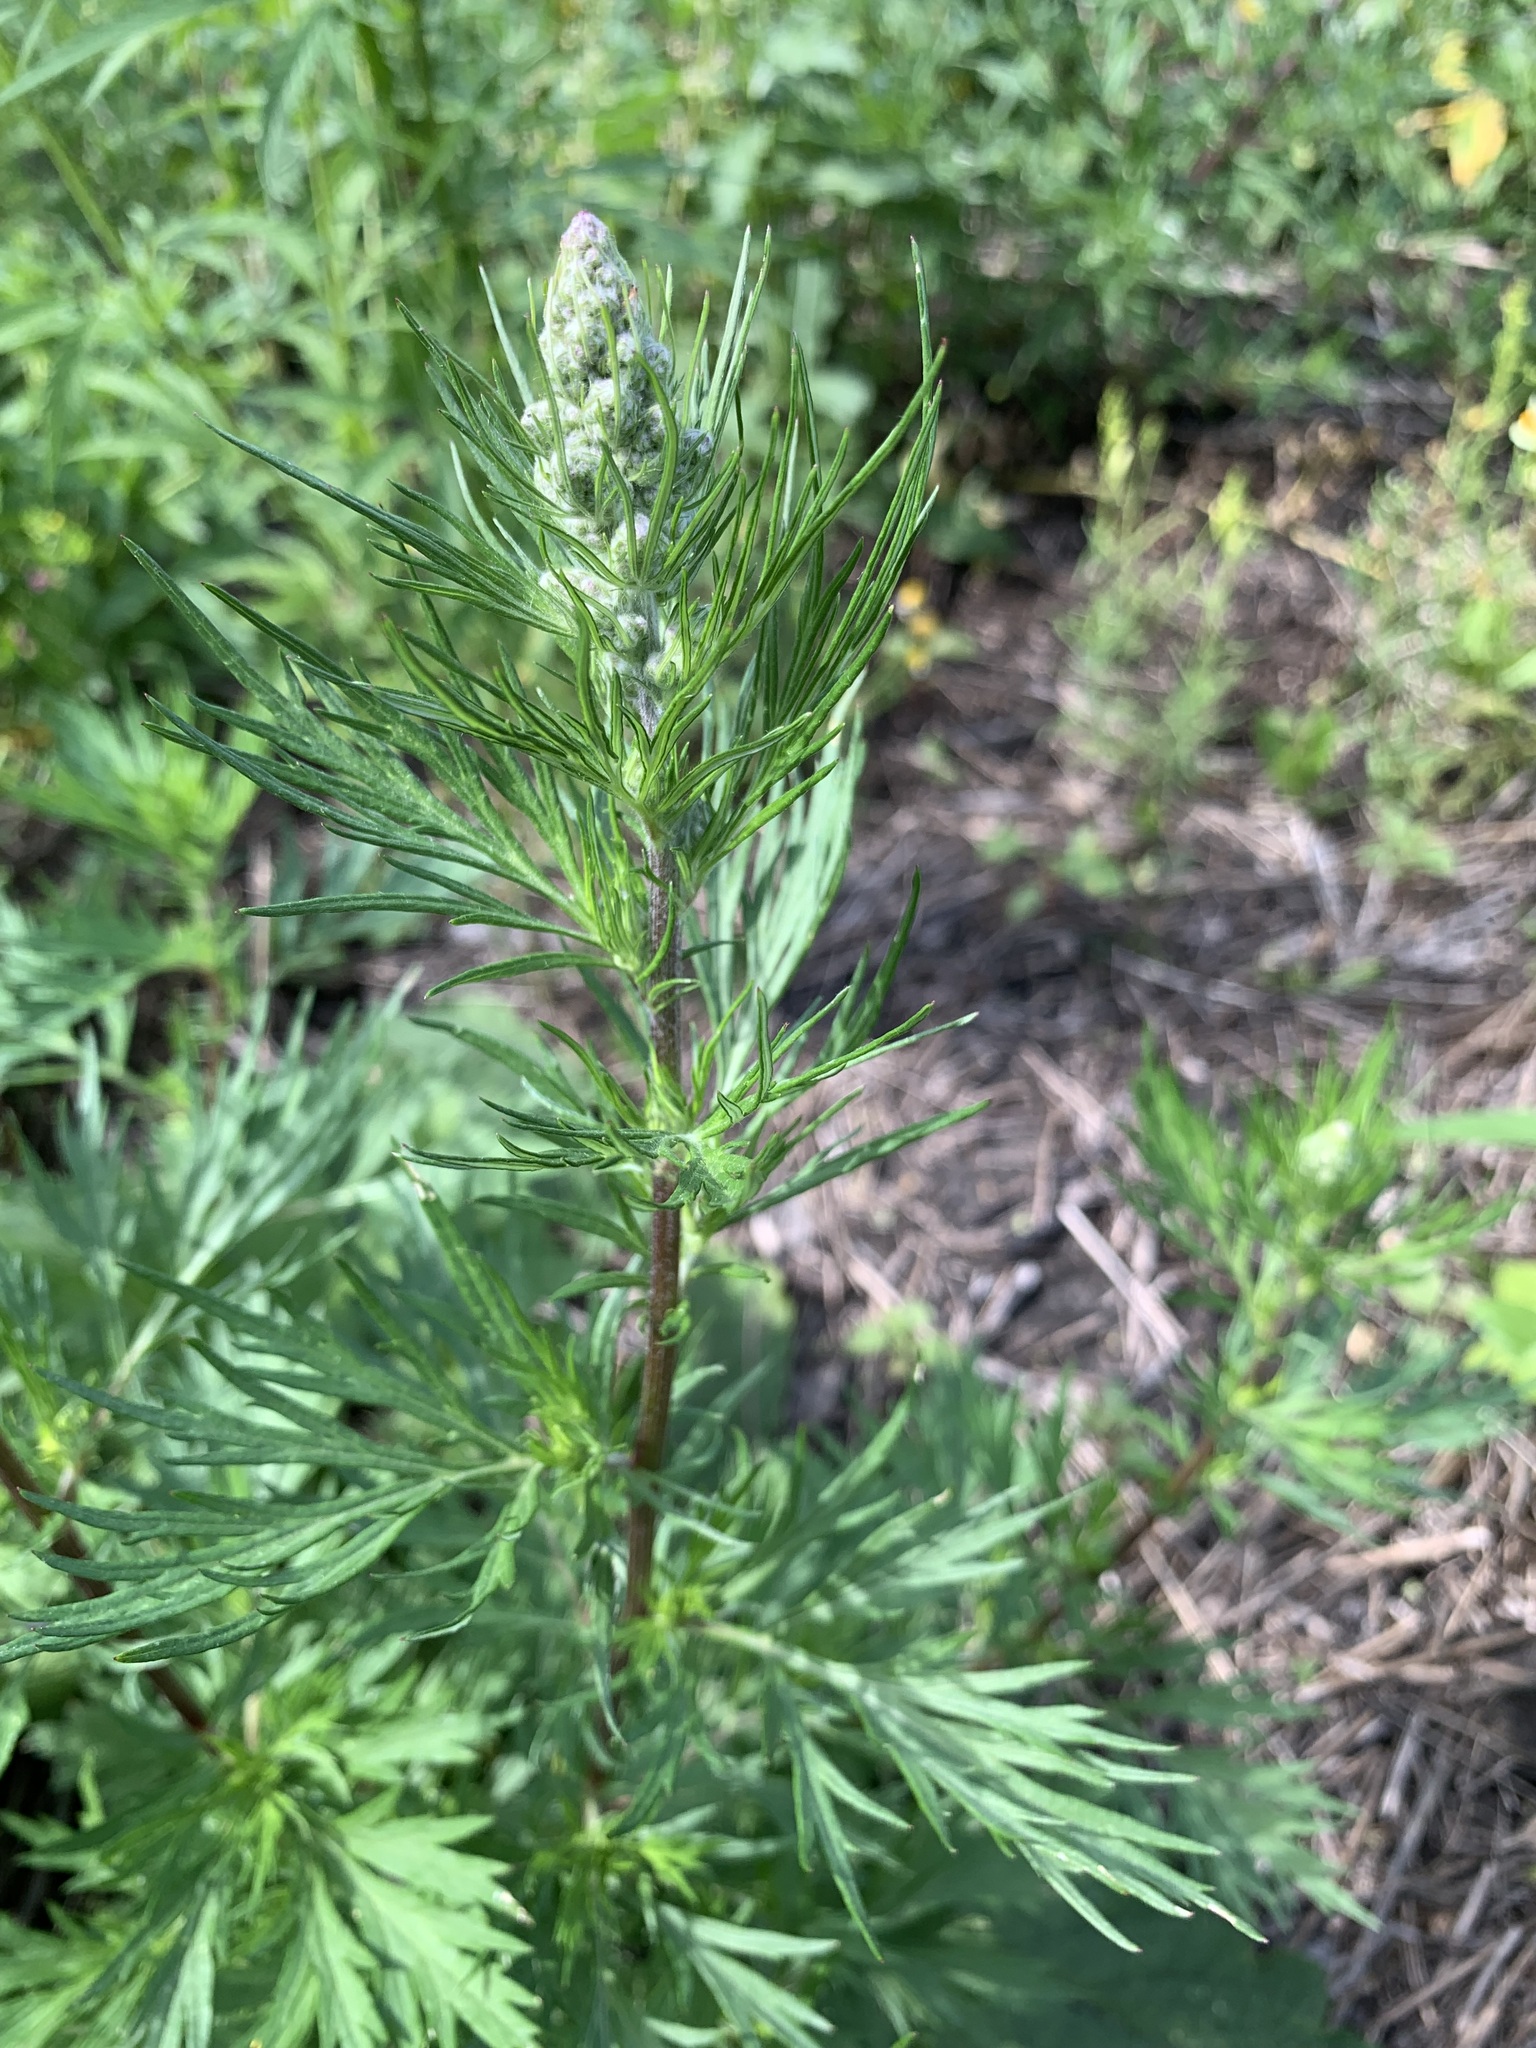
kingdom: Plantae
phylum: Tracheophyta
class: Magnoliopsida
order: Asterales
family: Asteraceae
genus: Artemisia
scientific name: Artemisia vulgaris
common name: Mugwort
